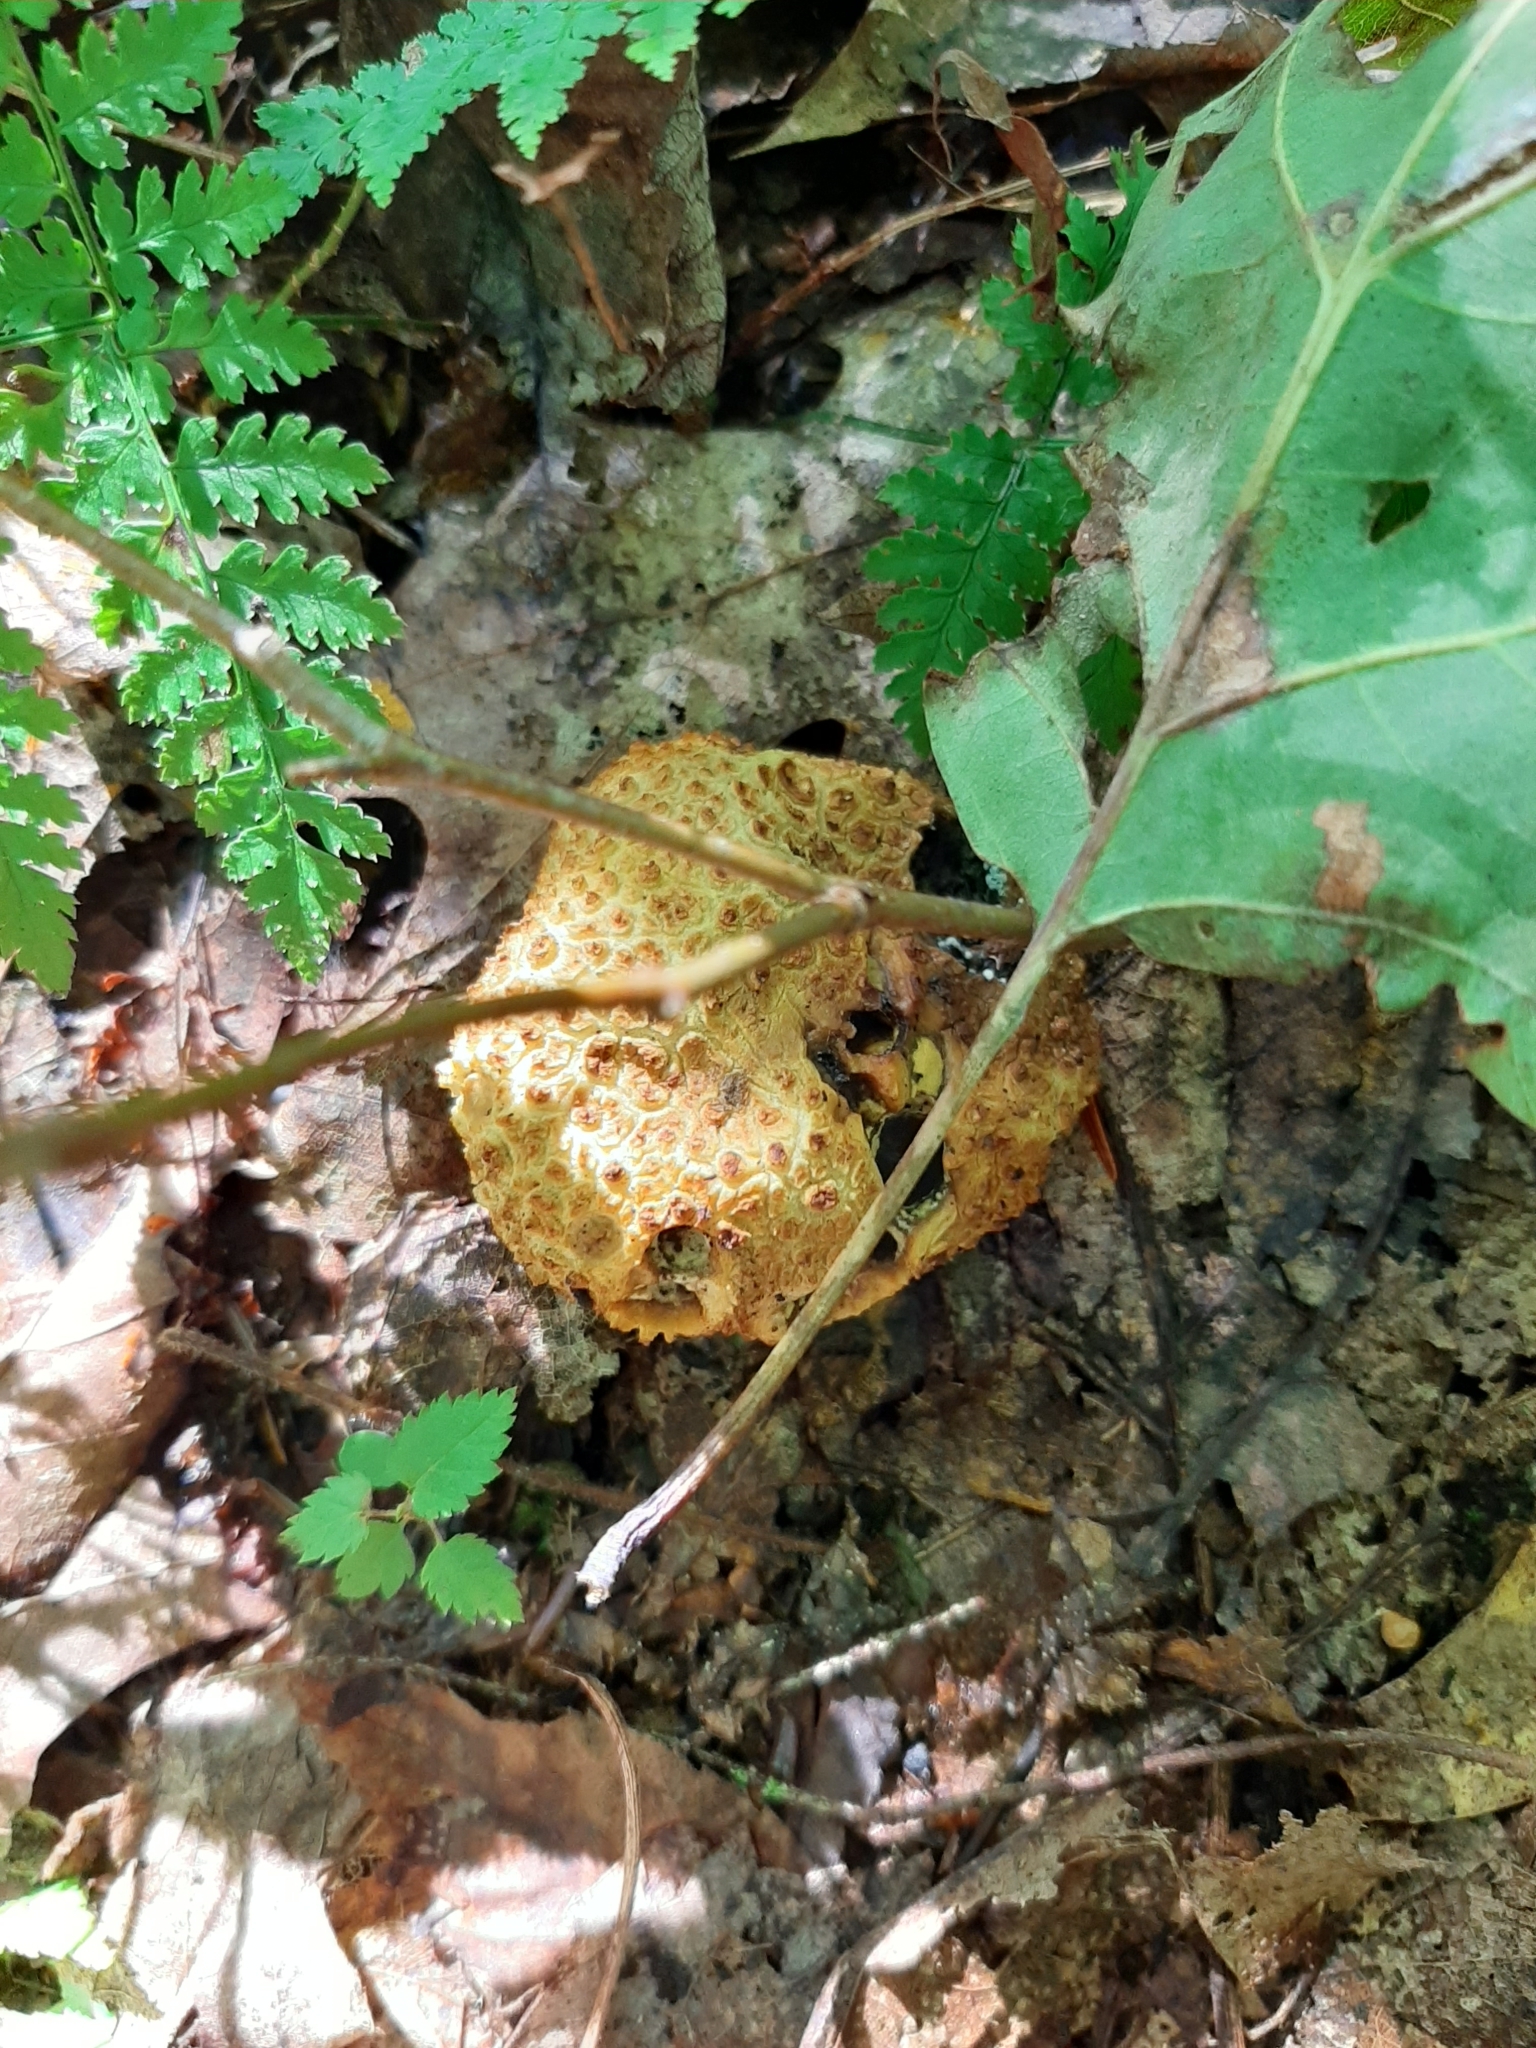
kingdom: Fungi
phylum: Basidiomycota
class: Agaricomycetes
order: Boletales
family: Sclerodermataceae
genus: Scleroderma
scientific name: Scleroderma citrinum
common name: Common earthball
